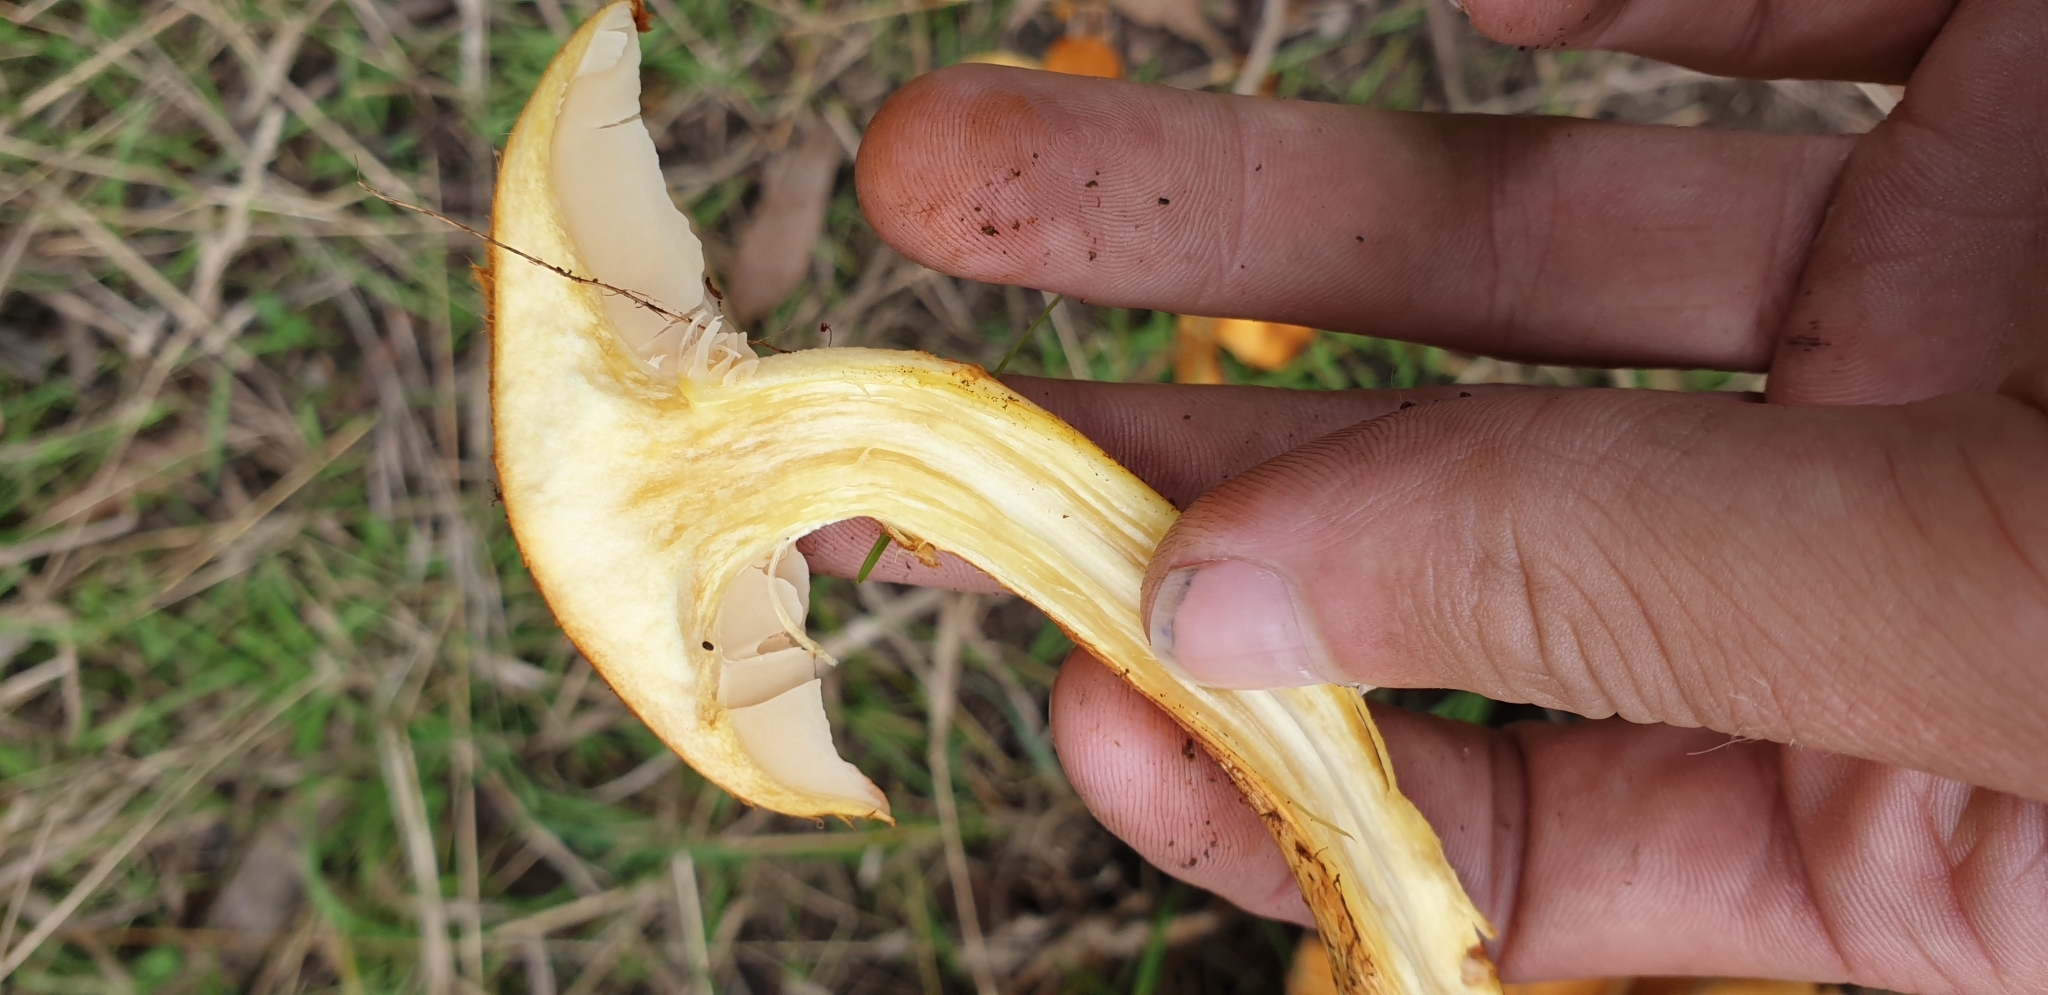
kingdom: Fungi
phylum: Basidiomycota
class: Agaricomycetes
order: Agaricales
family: Hymenogastraceae
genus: Gymnopilus
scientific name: Gymnopilus junonius
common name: Spectacular rustgill
